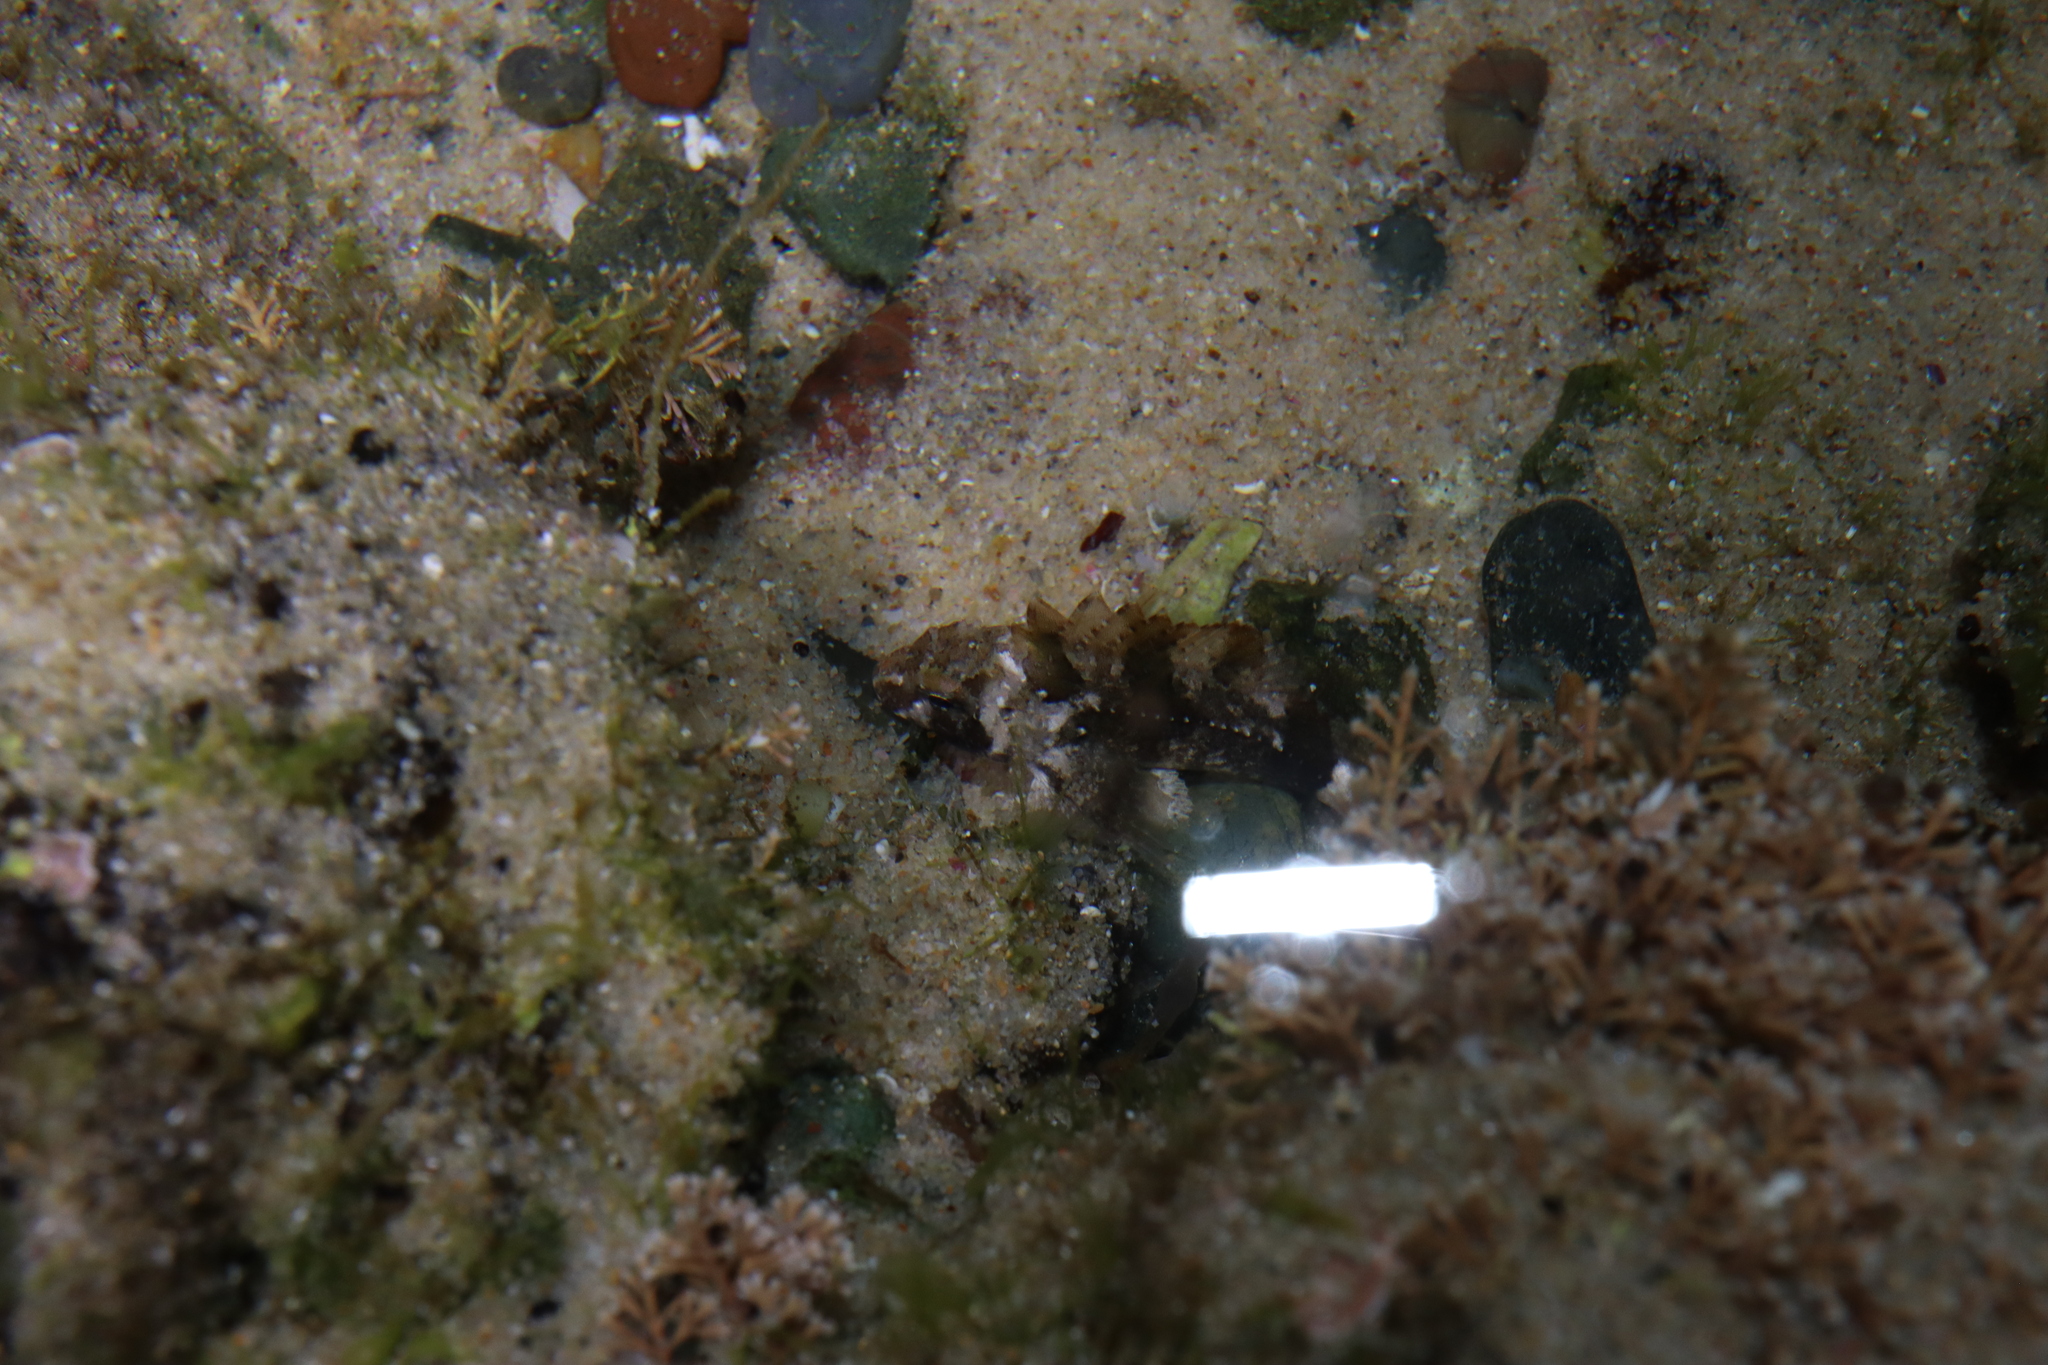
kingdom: Animalia
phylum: Chordata
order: Scorpaeniformes
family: Tetrarogidae
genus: Centropogon
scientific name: Centropogon australis
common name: Fortescue
